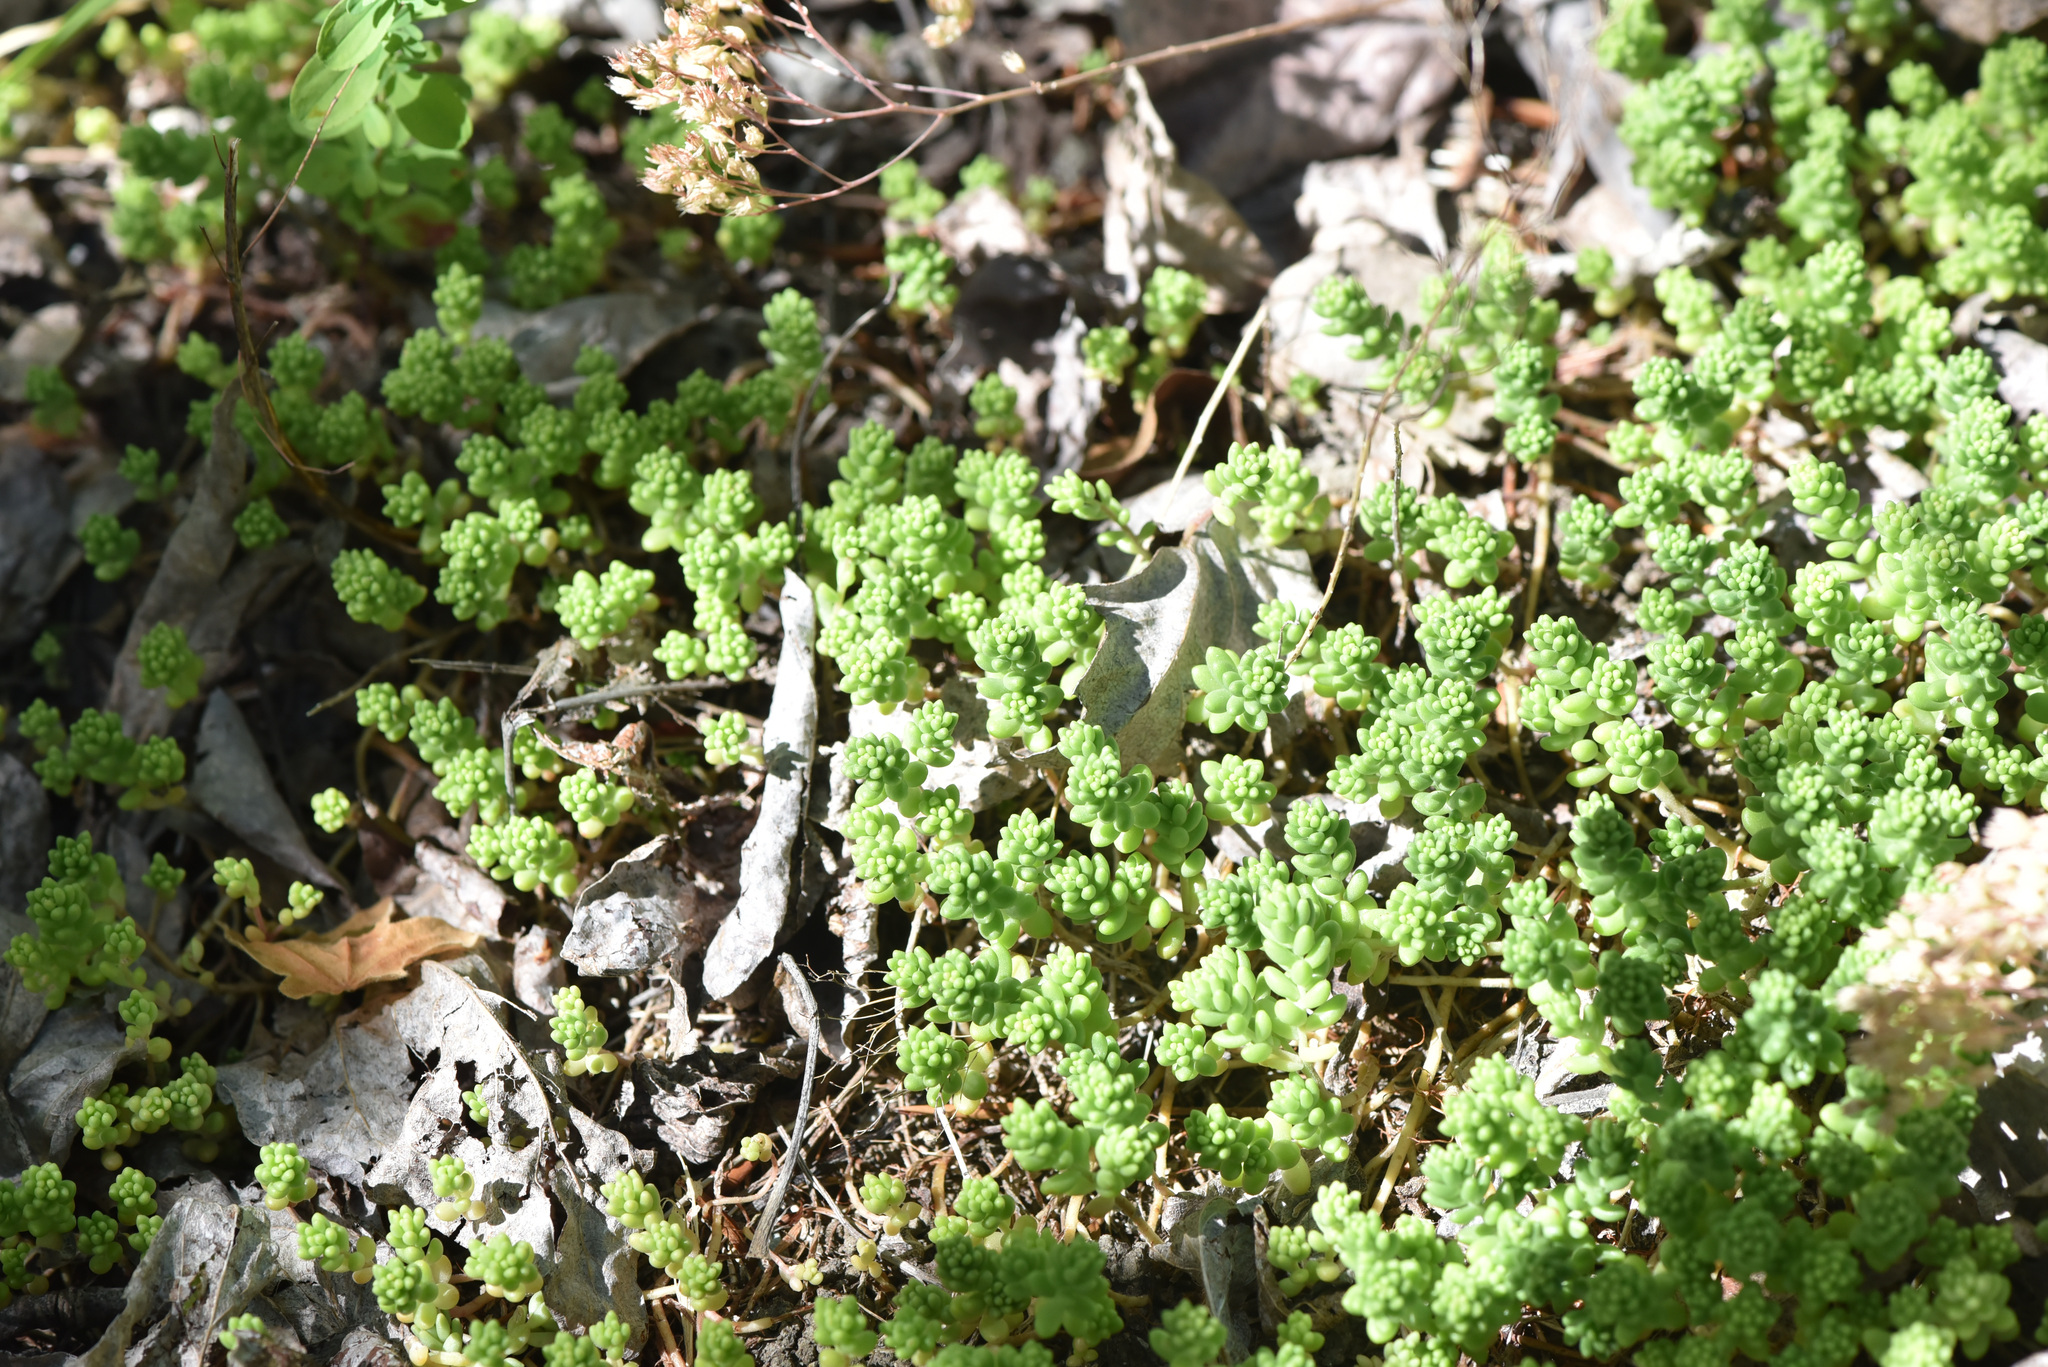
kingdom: Plantae
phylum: Tracheophyta
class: Magnoliopsida
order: Saxifragales
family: Crassulaceae
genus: Sedum
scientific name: Sedum album
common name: White stonecrop
